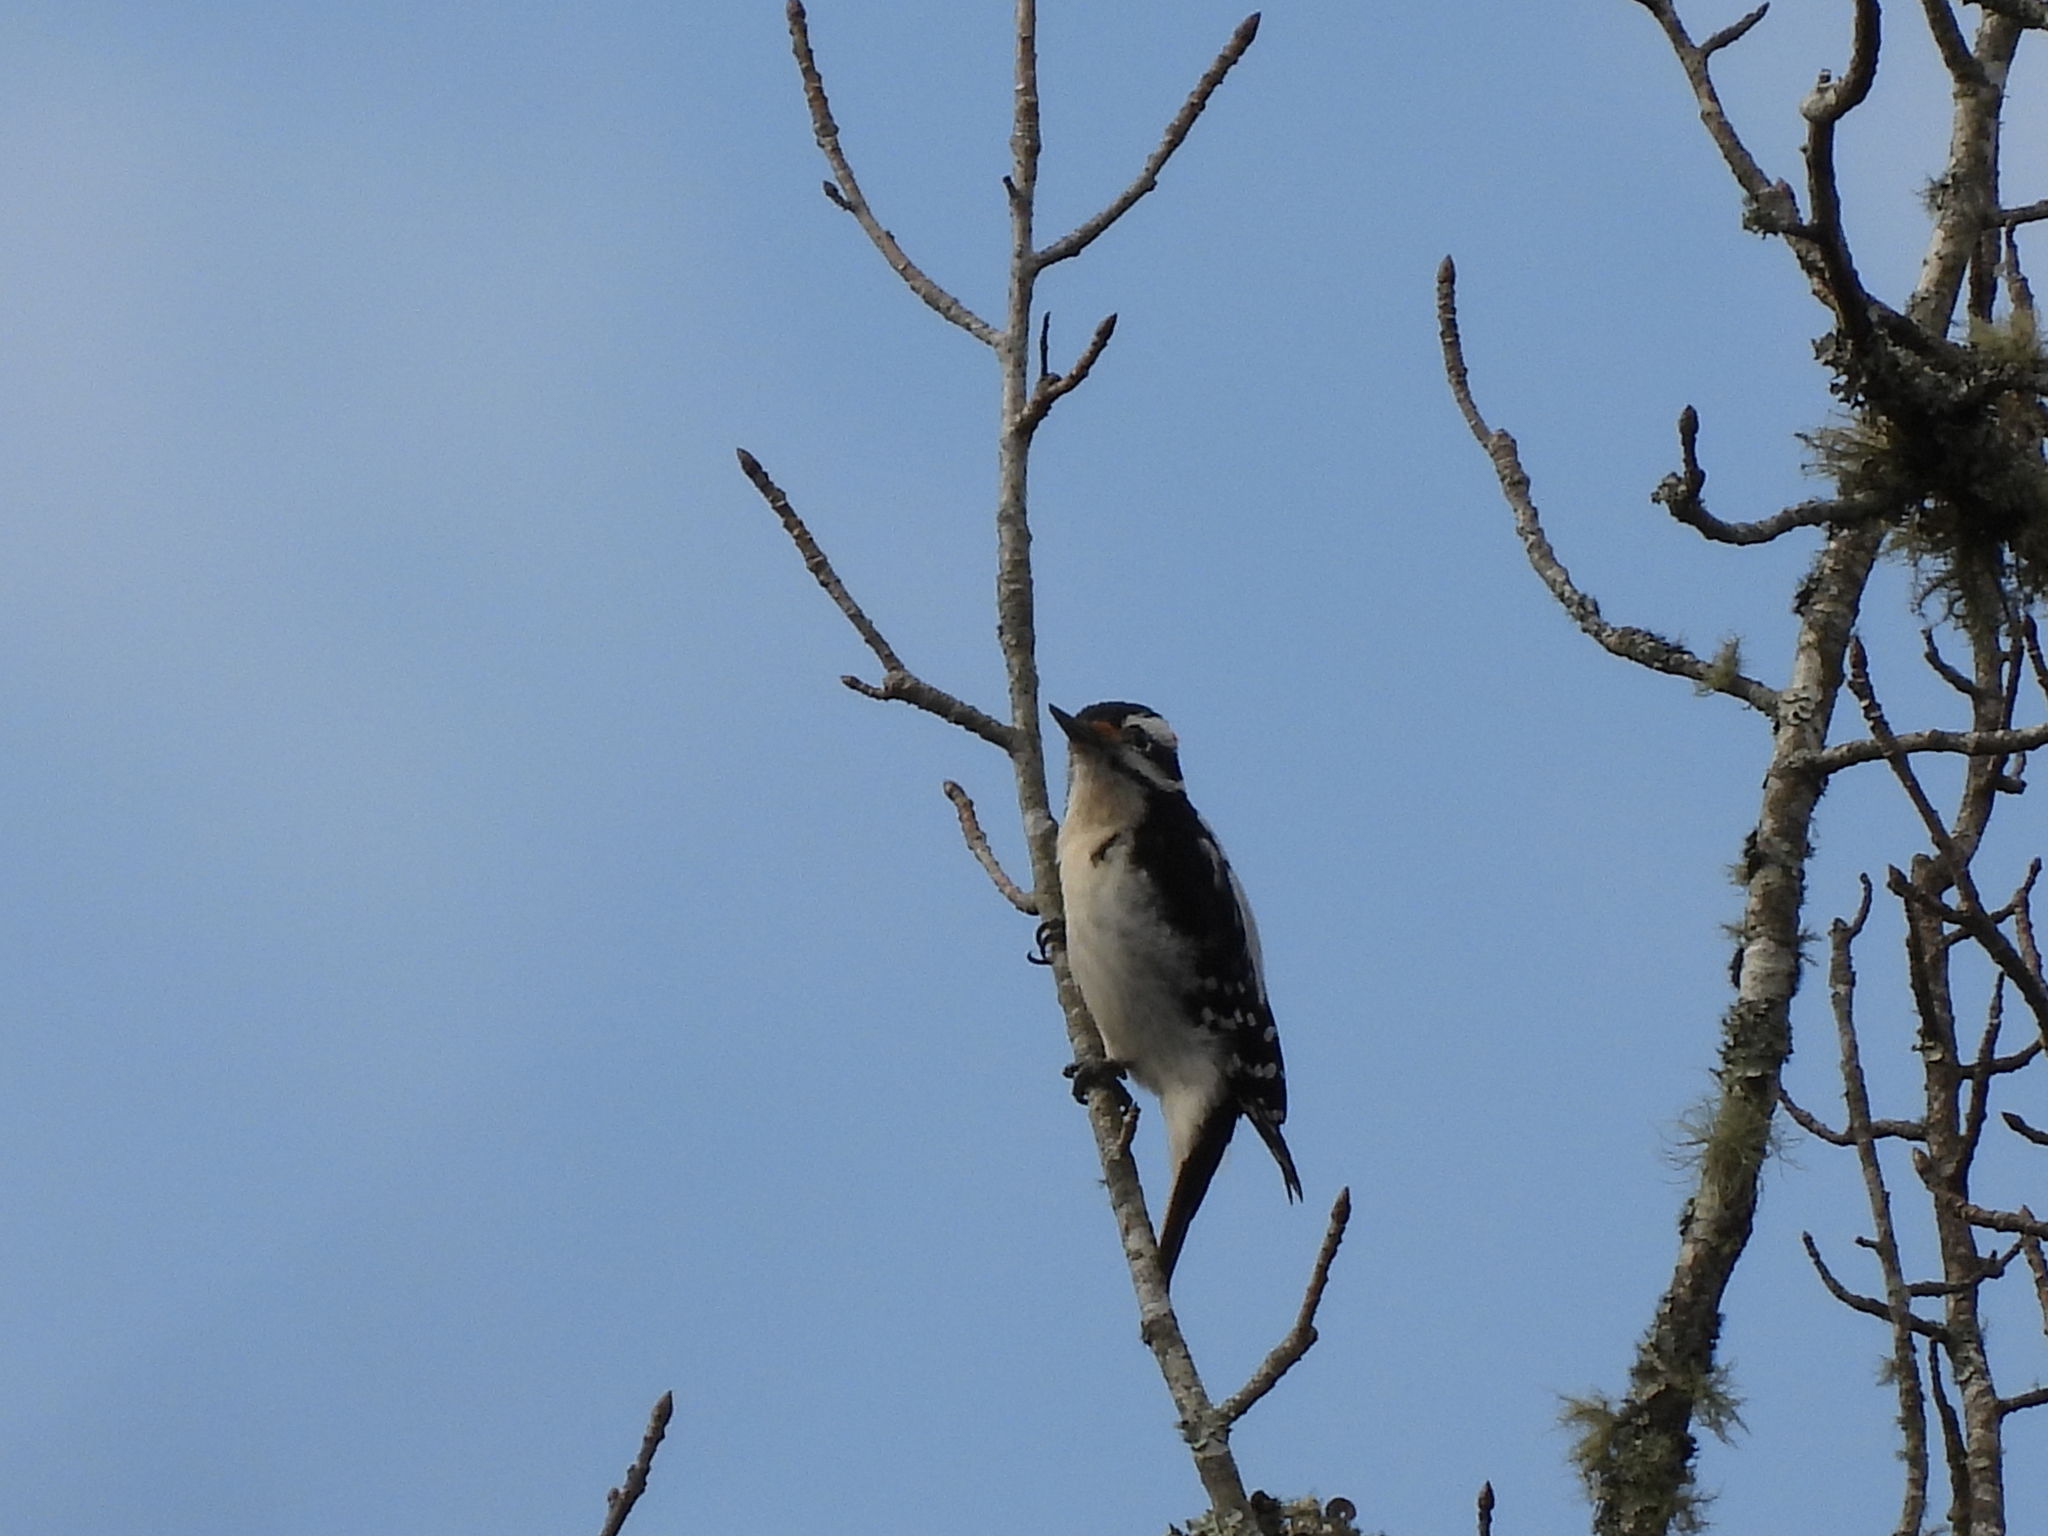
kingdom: Animalia
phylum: Chordata
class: Aves
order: Piciformes
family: Picidae
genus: Leuconotopicus
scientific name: Leuconotopicus villosus
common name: Hairy woodpecker
